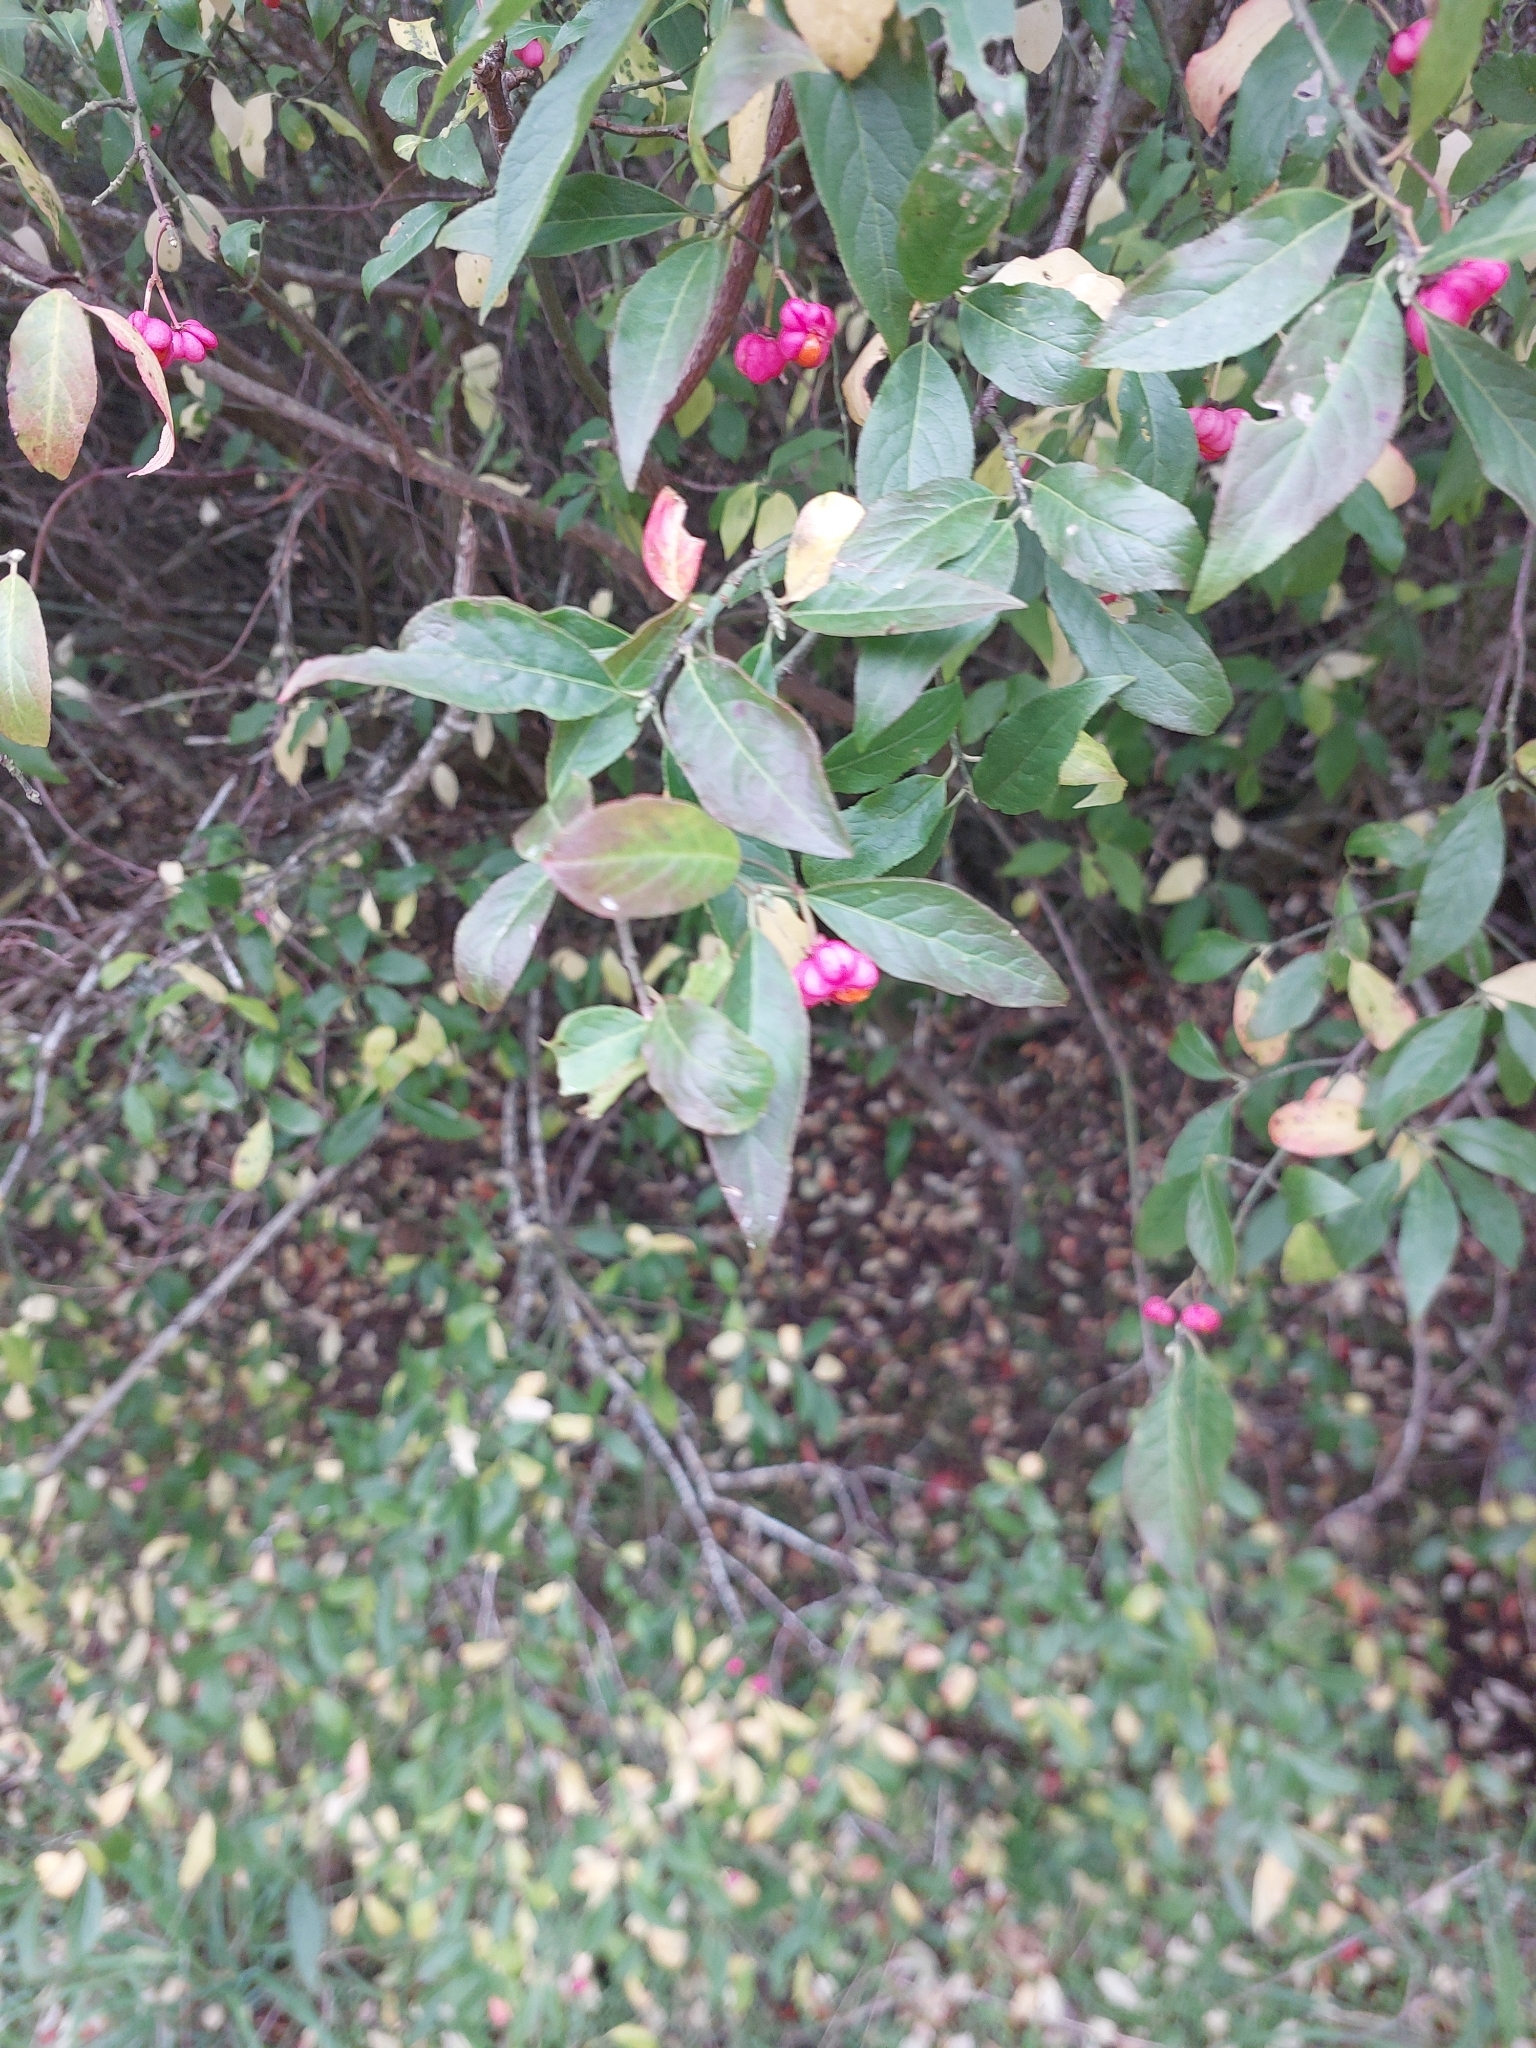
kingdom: Plantae
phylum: Tracheophyta
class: Magnoliopsida
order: Celastrales
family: Celastraceae
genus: Euonymus
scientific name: Euonymus europaeus
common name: Spindle
